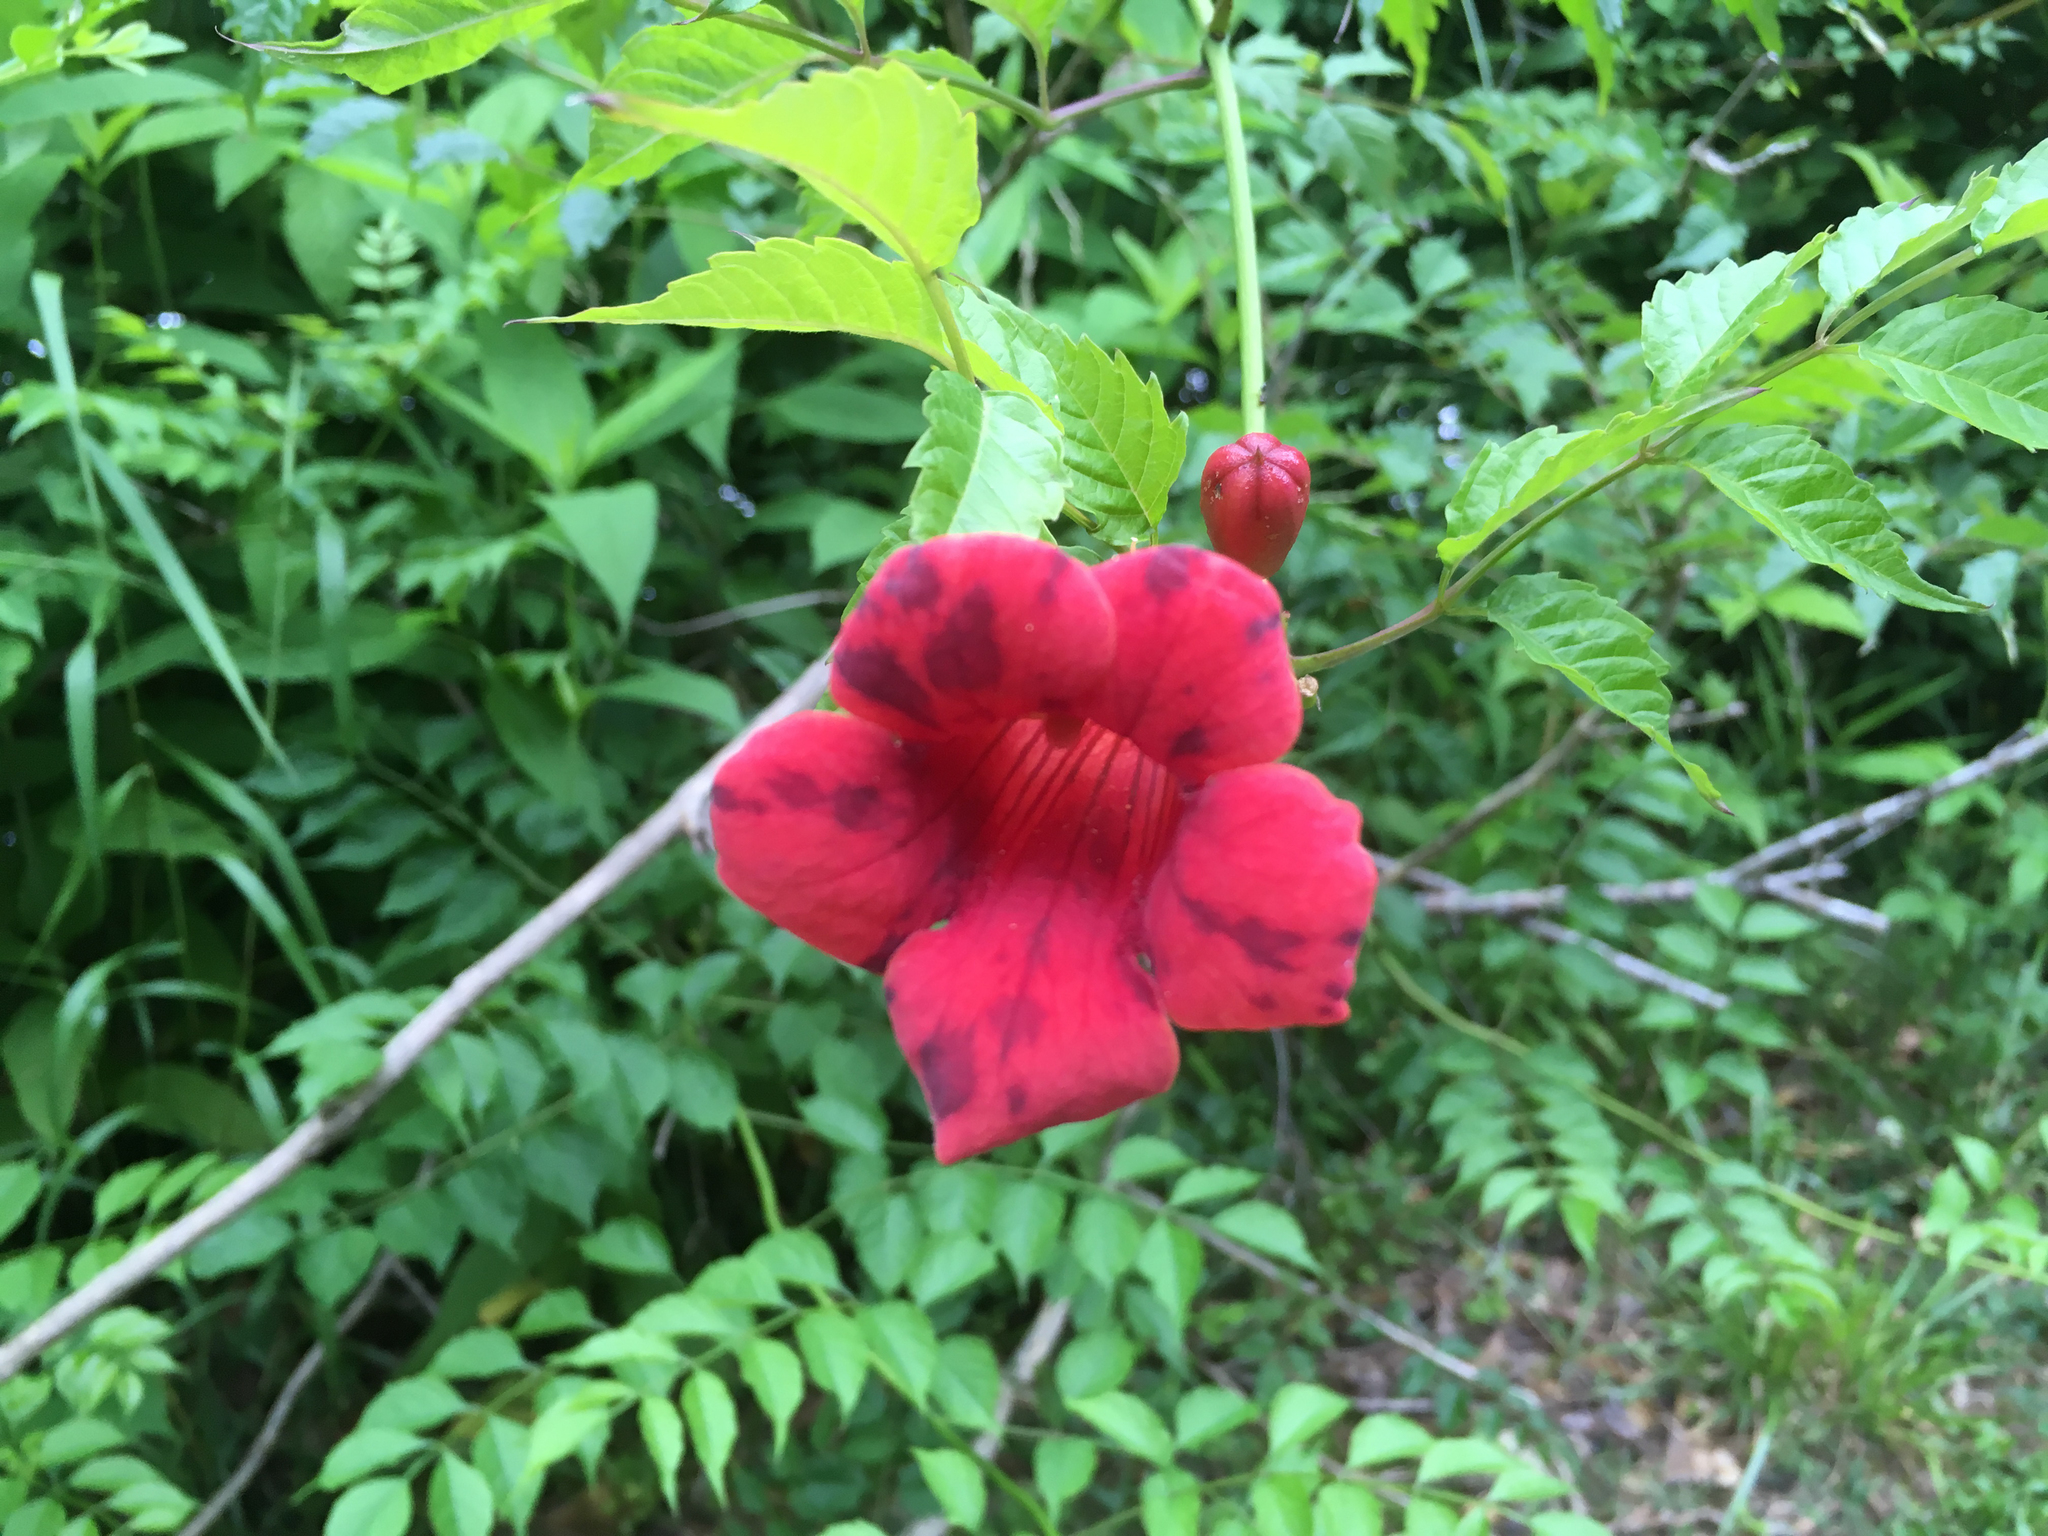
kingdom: Plantae
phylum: Tracheophyta
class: Magnoliopsida
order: Lamiales
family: Bignoniaceae
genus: Campsis
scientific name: Campsis radicans
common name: Trumpet-creeper
